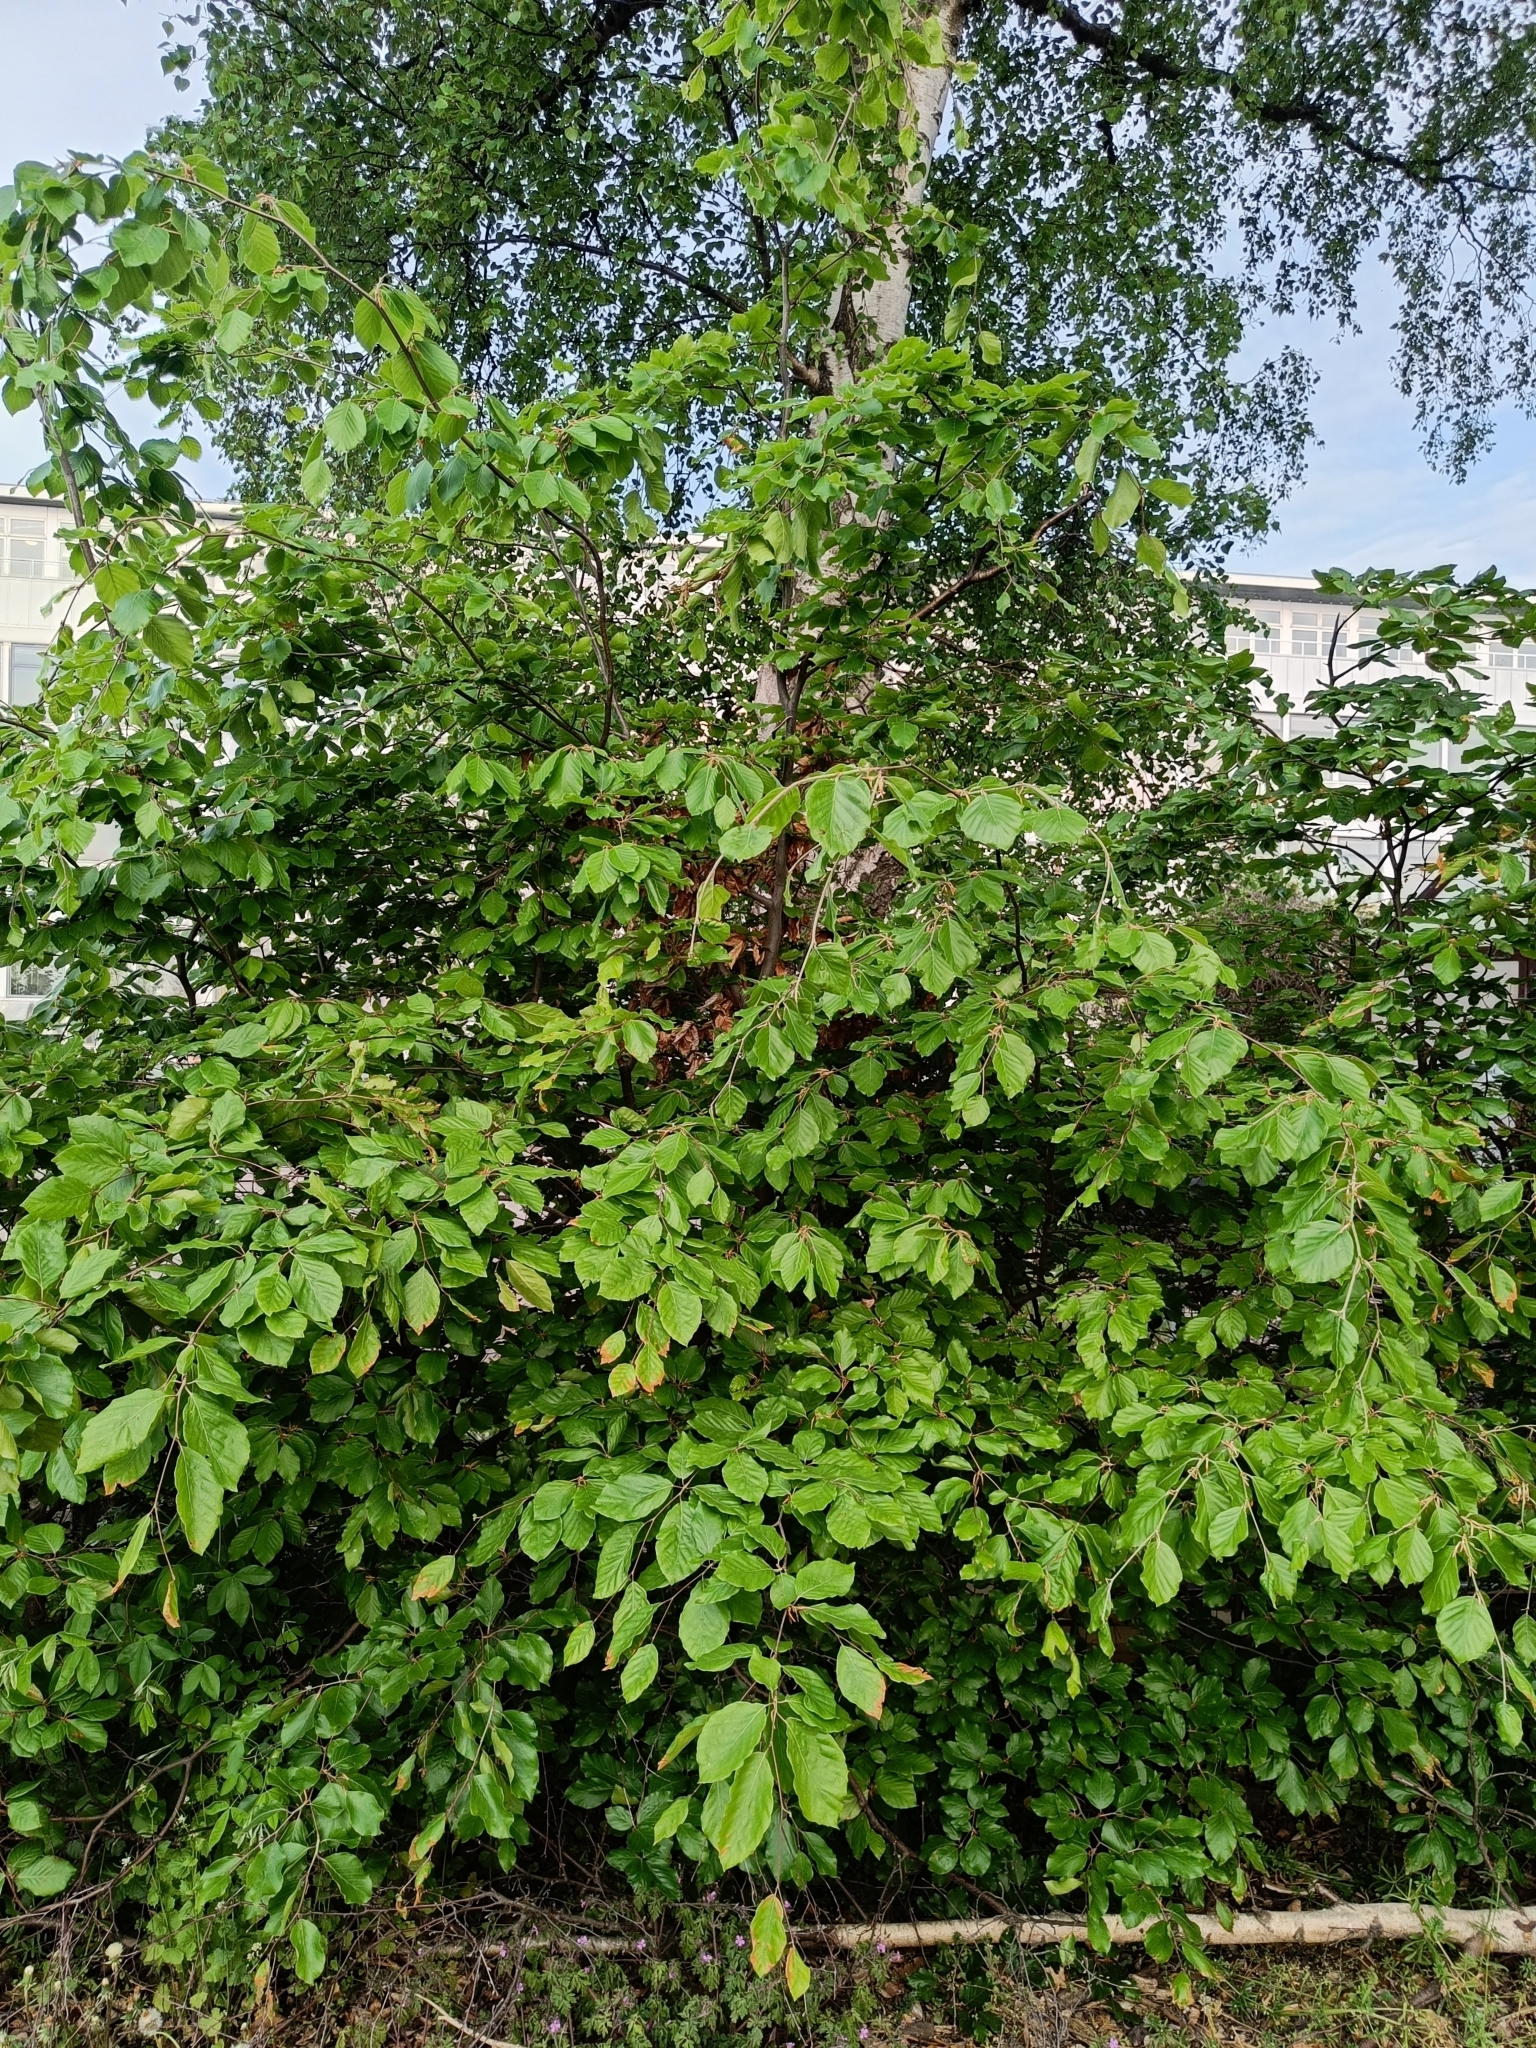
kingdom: Plantae
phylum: Tracheophyta
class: Magnoliopsida
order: Fagales
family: Fagaceae
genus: Fagus
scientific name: Fagus sylvatica
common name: Beech
